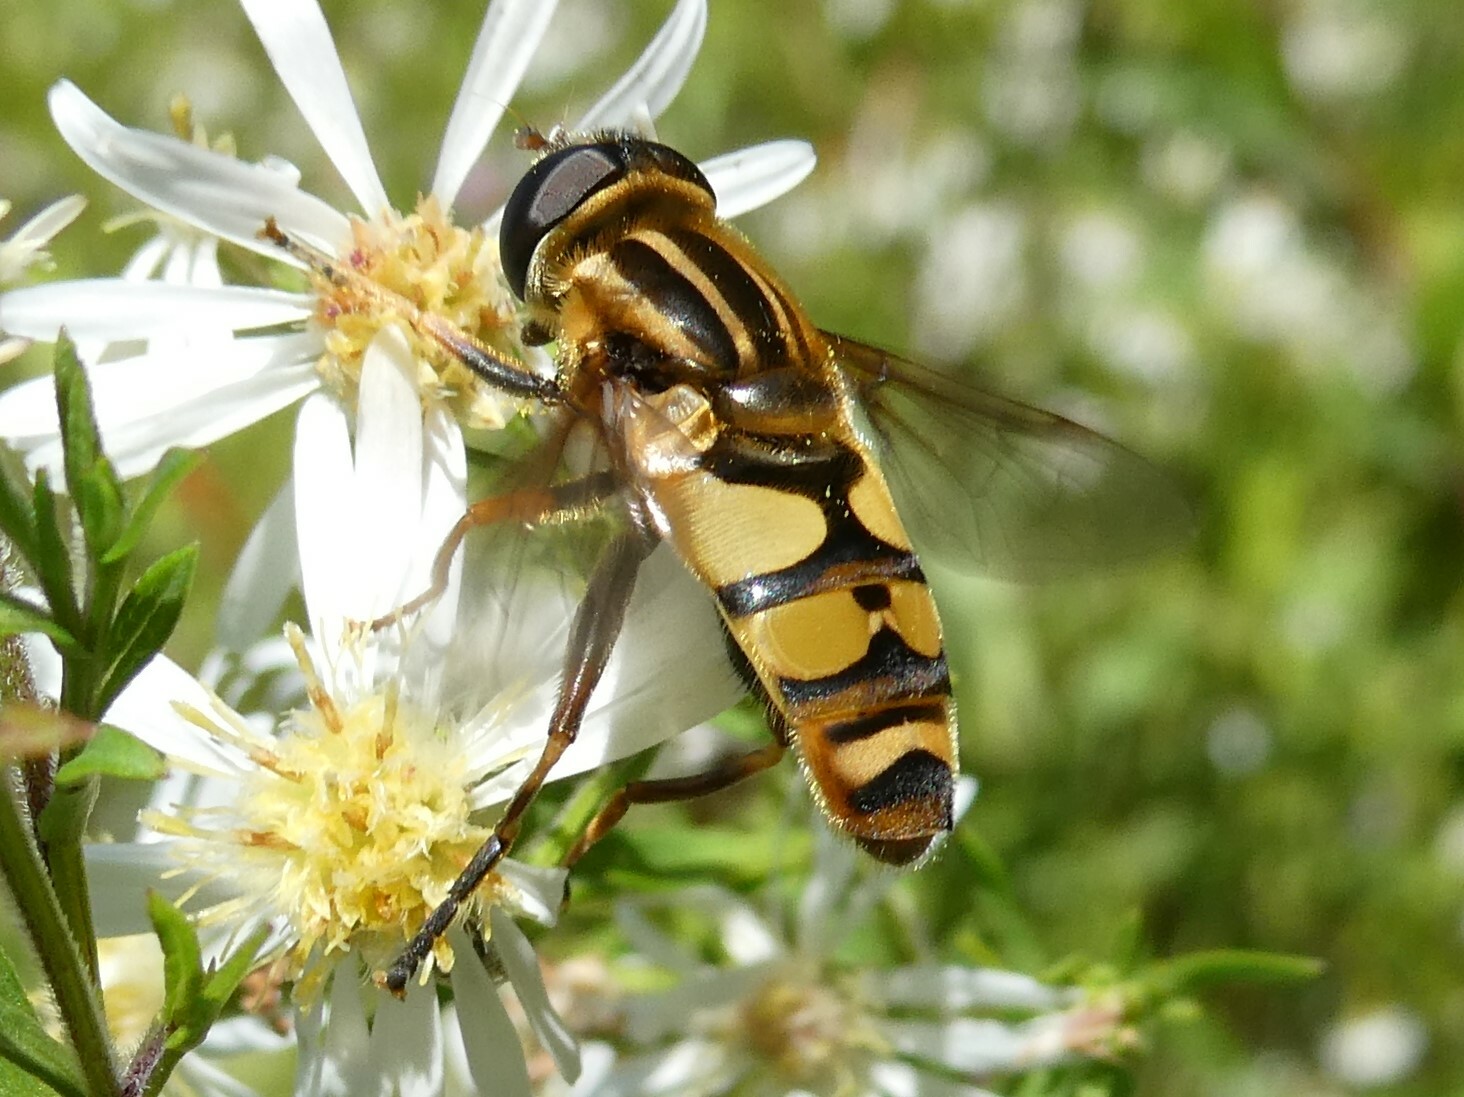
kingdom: Animalia
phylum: Arthropoda
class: Insecta
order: Diptera
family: Syrphidae
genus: Helophilus
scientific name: Helophilus fasciatus
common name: Narrow-headed marsh fly
